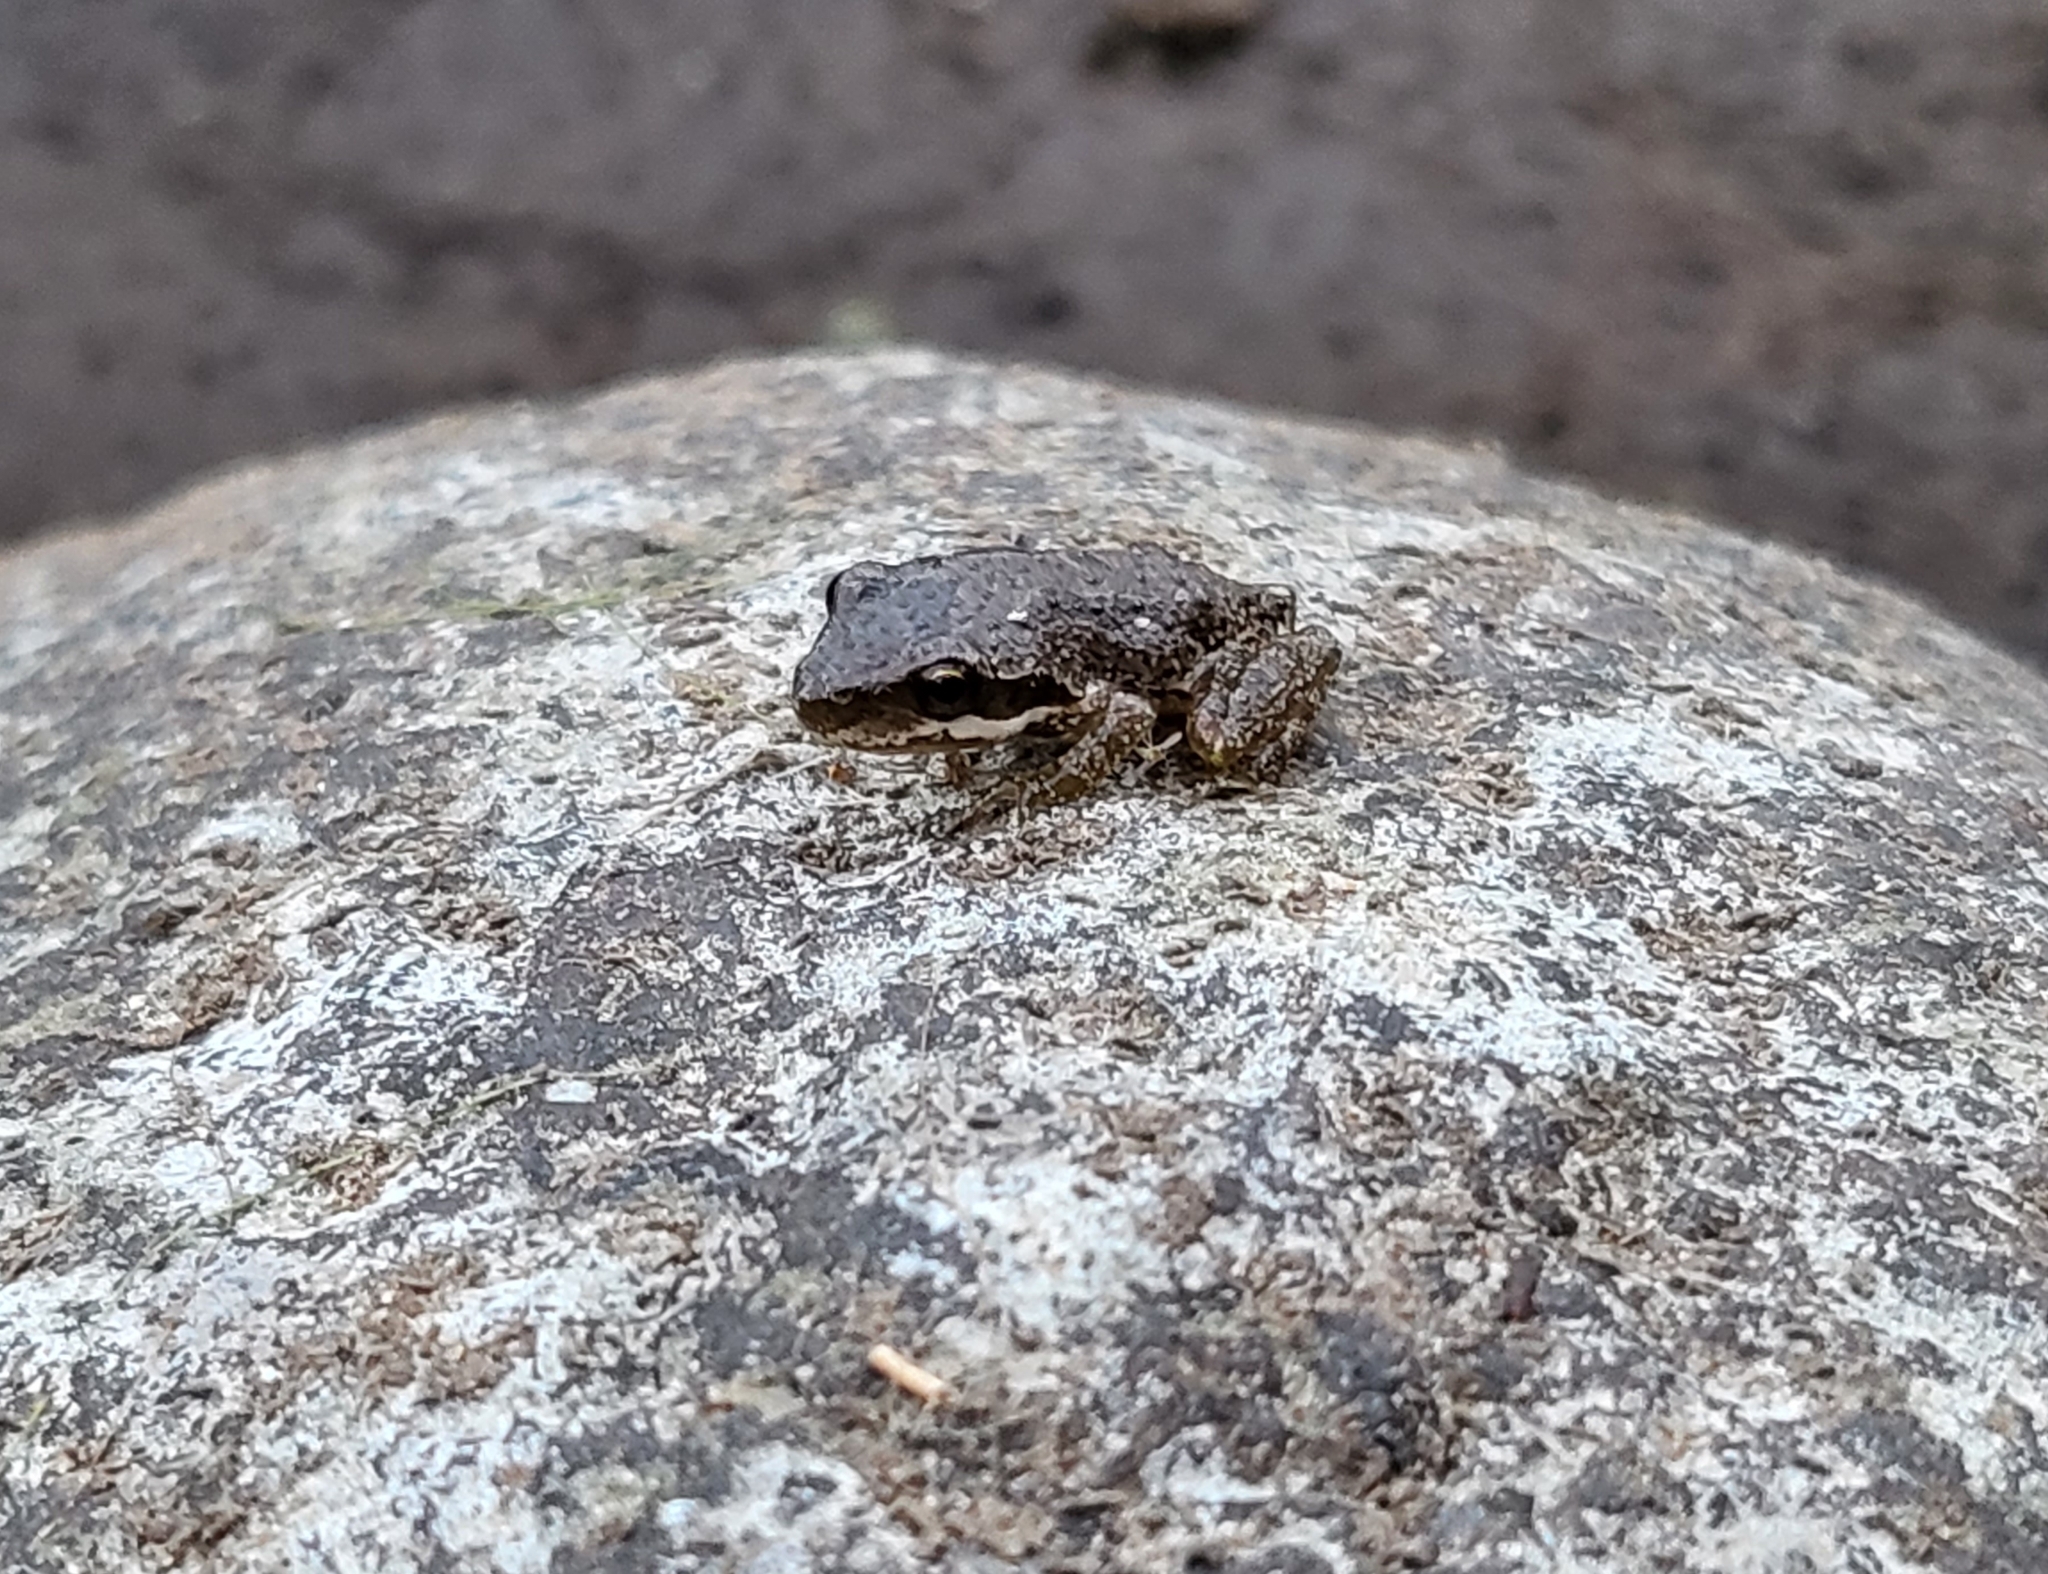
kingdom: Animalia
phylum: Chordata
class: Amphibia
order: Anura
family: Hylidae
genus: Pseudacris
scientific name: Pseudacris regilla
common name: Pacific chorus frog
